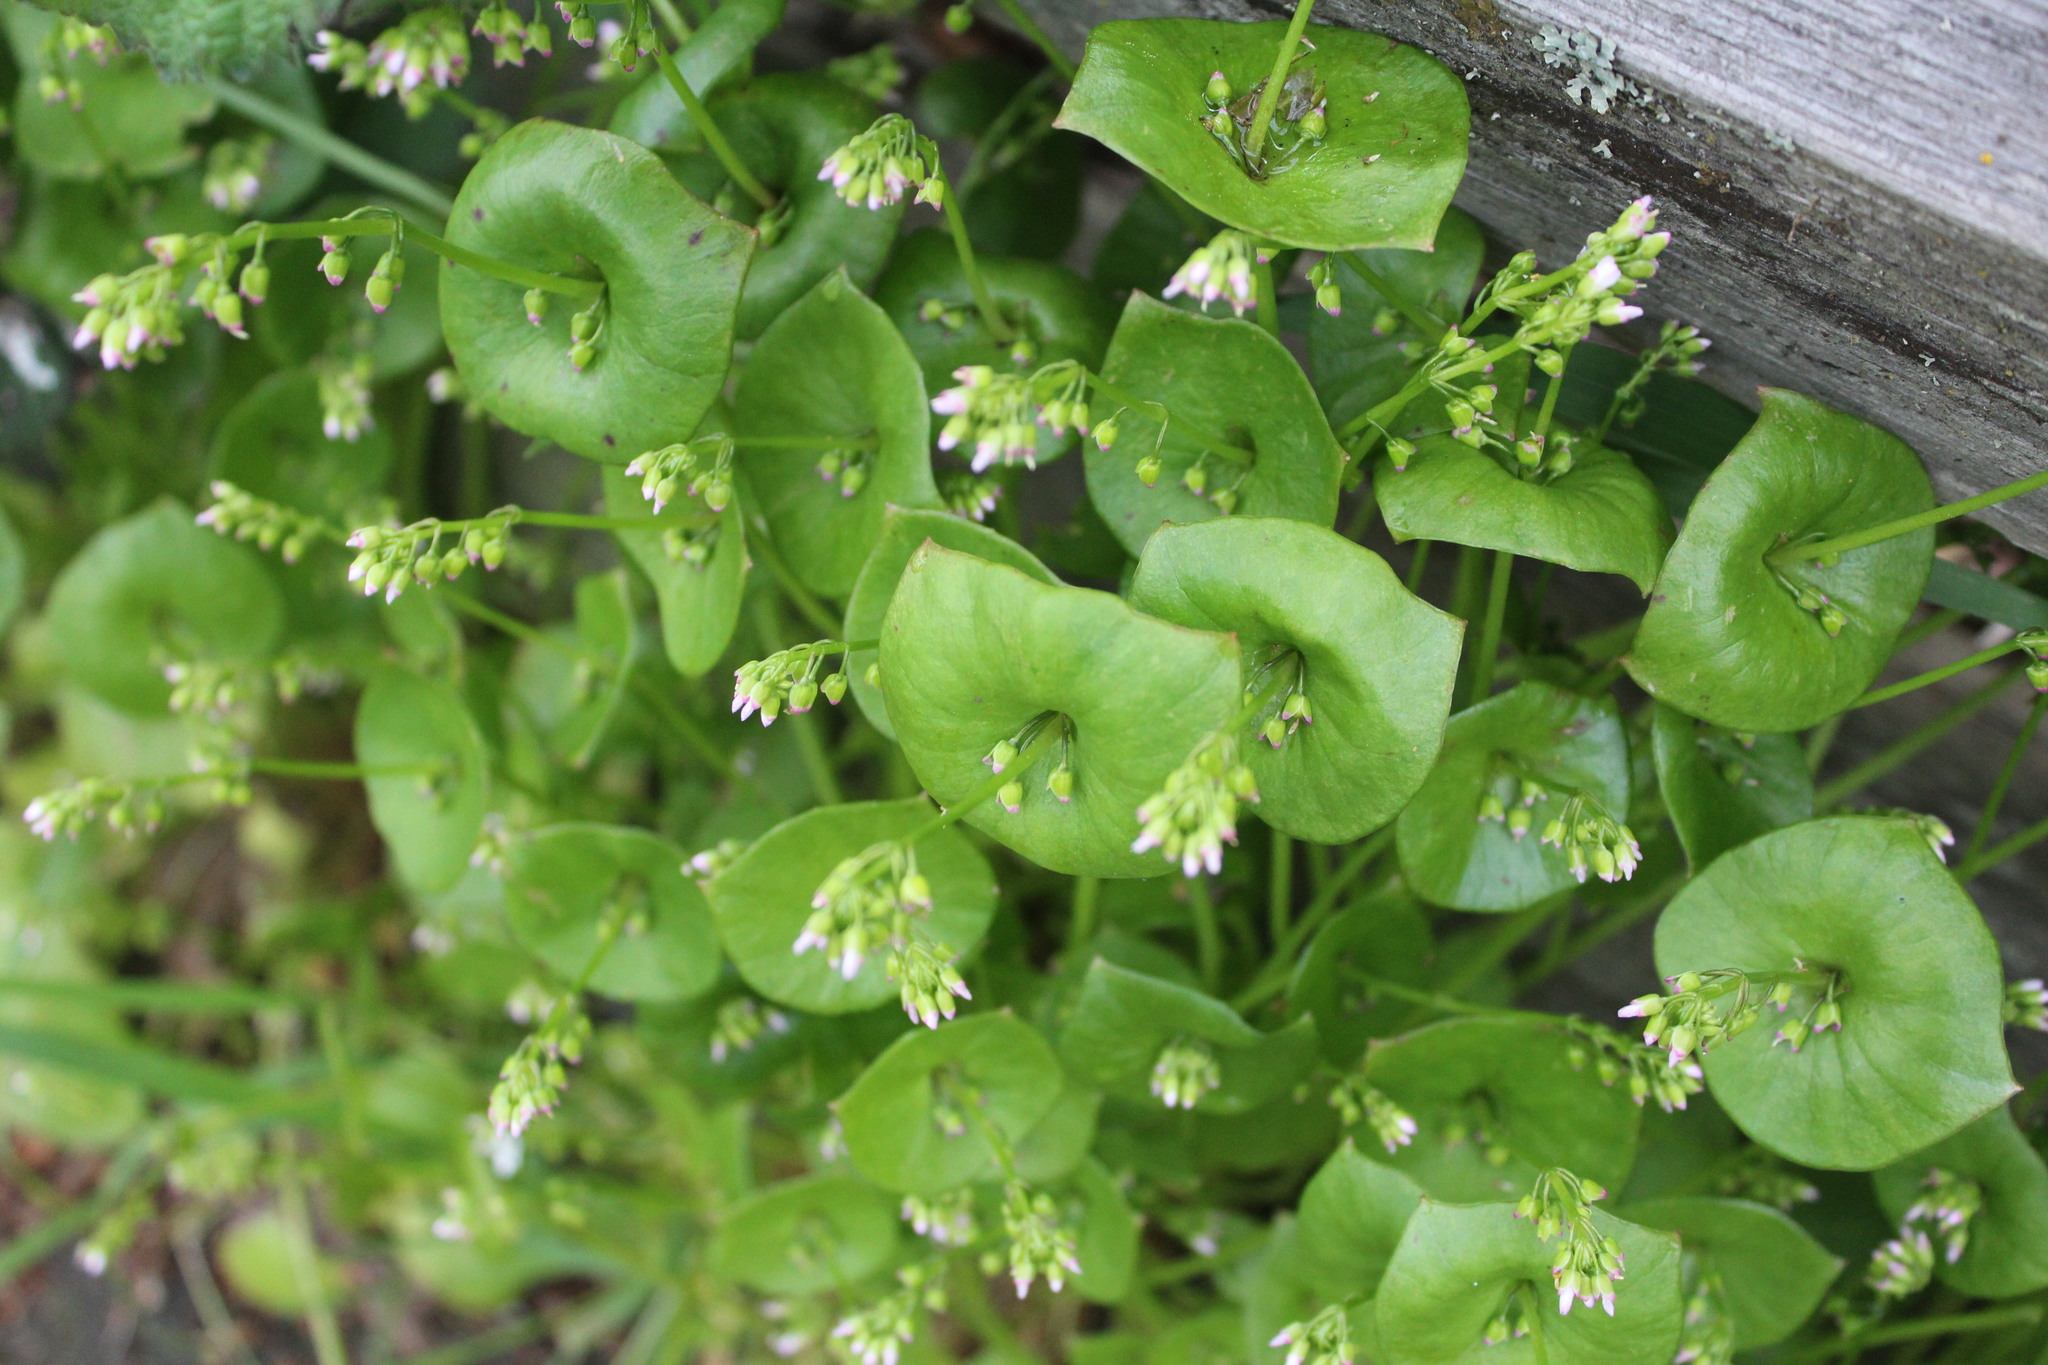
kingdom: Plantae
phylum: Tracheophyta
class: Magnoliopsida
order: Caryophyllales
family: Montiaceae
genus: Claytonia
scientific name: Claytonia perfoliata
